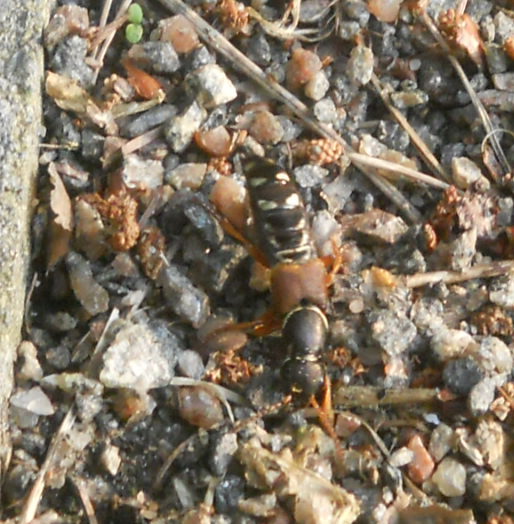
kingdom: Animalia
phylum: Arthropoda
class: Insecta
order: Coleoptera
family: Staphylinidae
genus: Staphylinus
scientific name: Staphylinus caesareus
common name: Staph beetle
